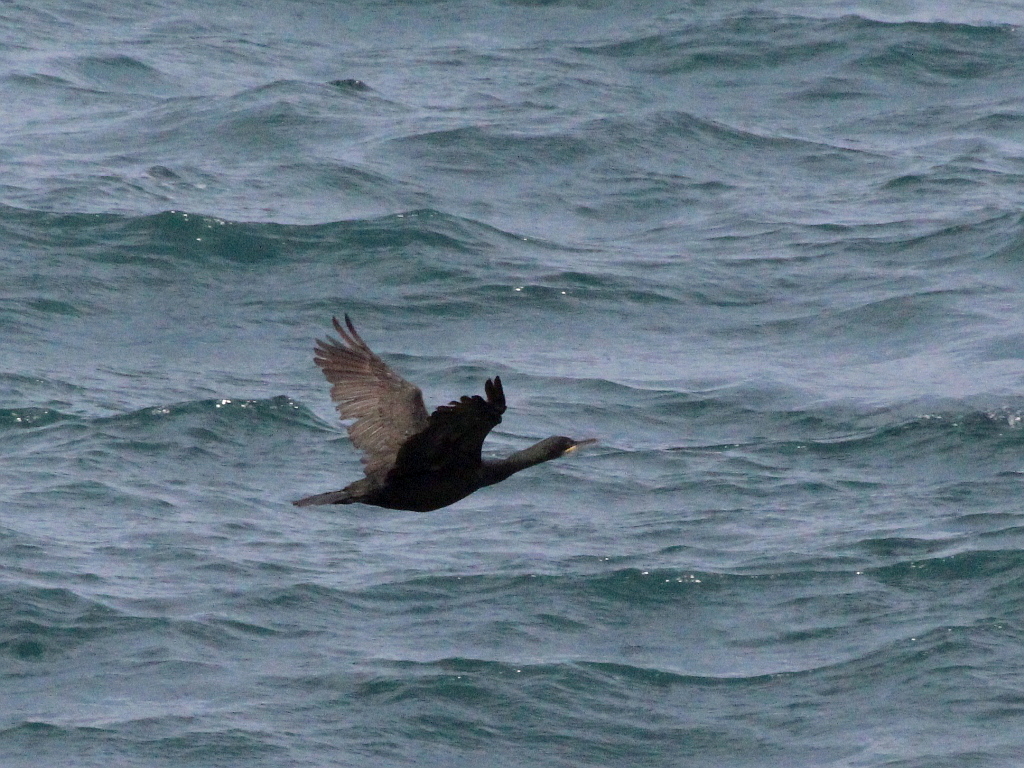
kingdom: Animalia
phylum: Chordata
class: Aves
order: Suliformes
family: Phalacrocoracidae
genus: Phalacrocorax
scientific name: Phalacrocorax aristotelis
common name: European shag
